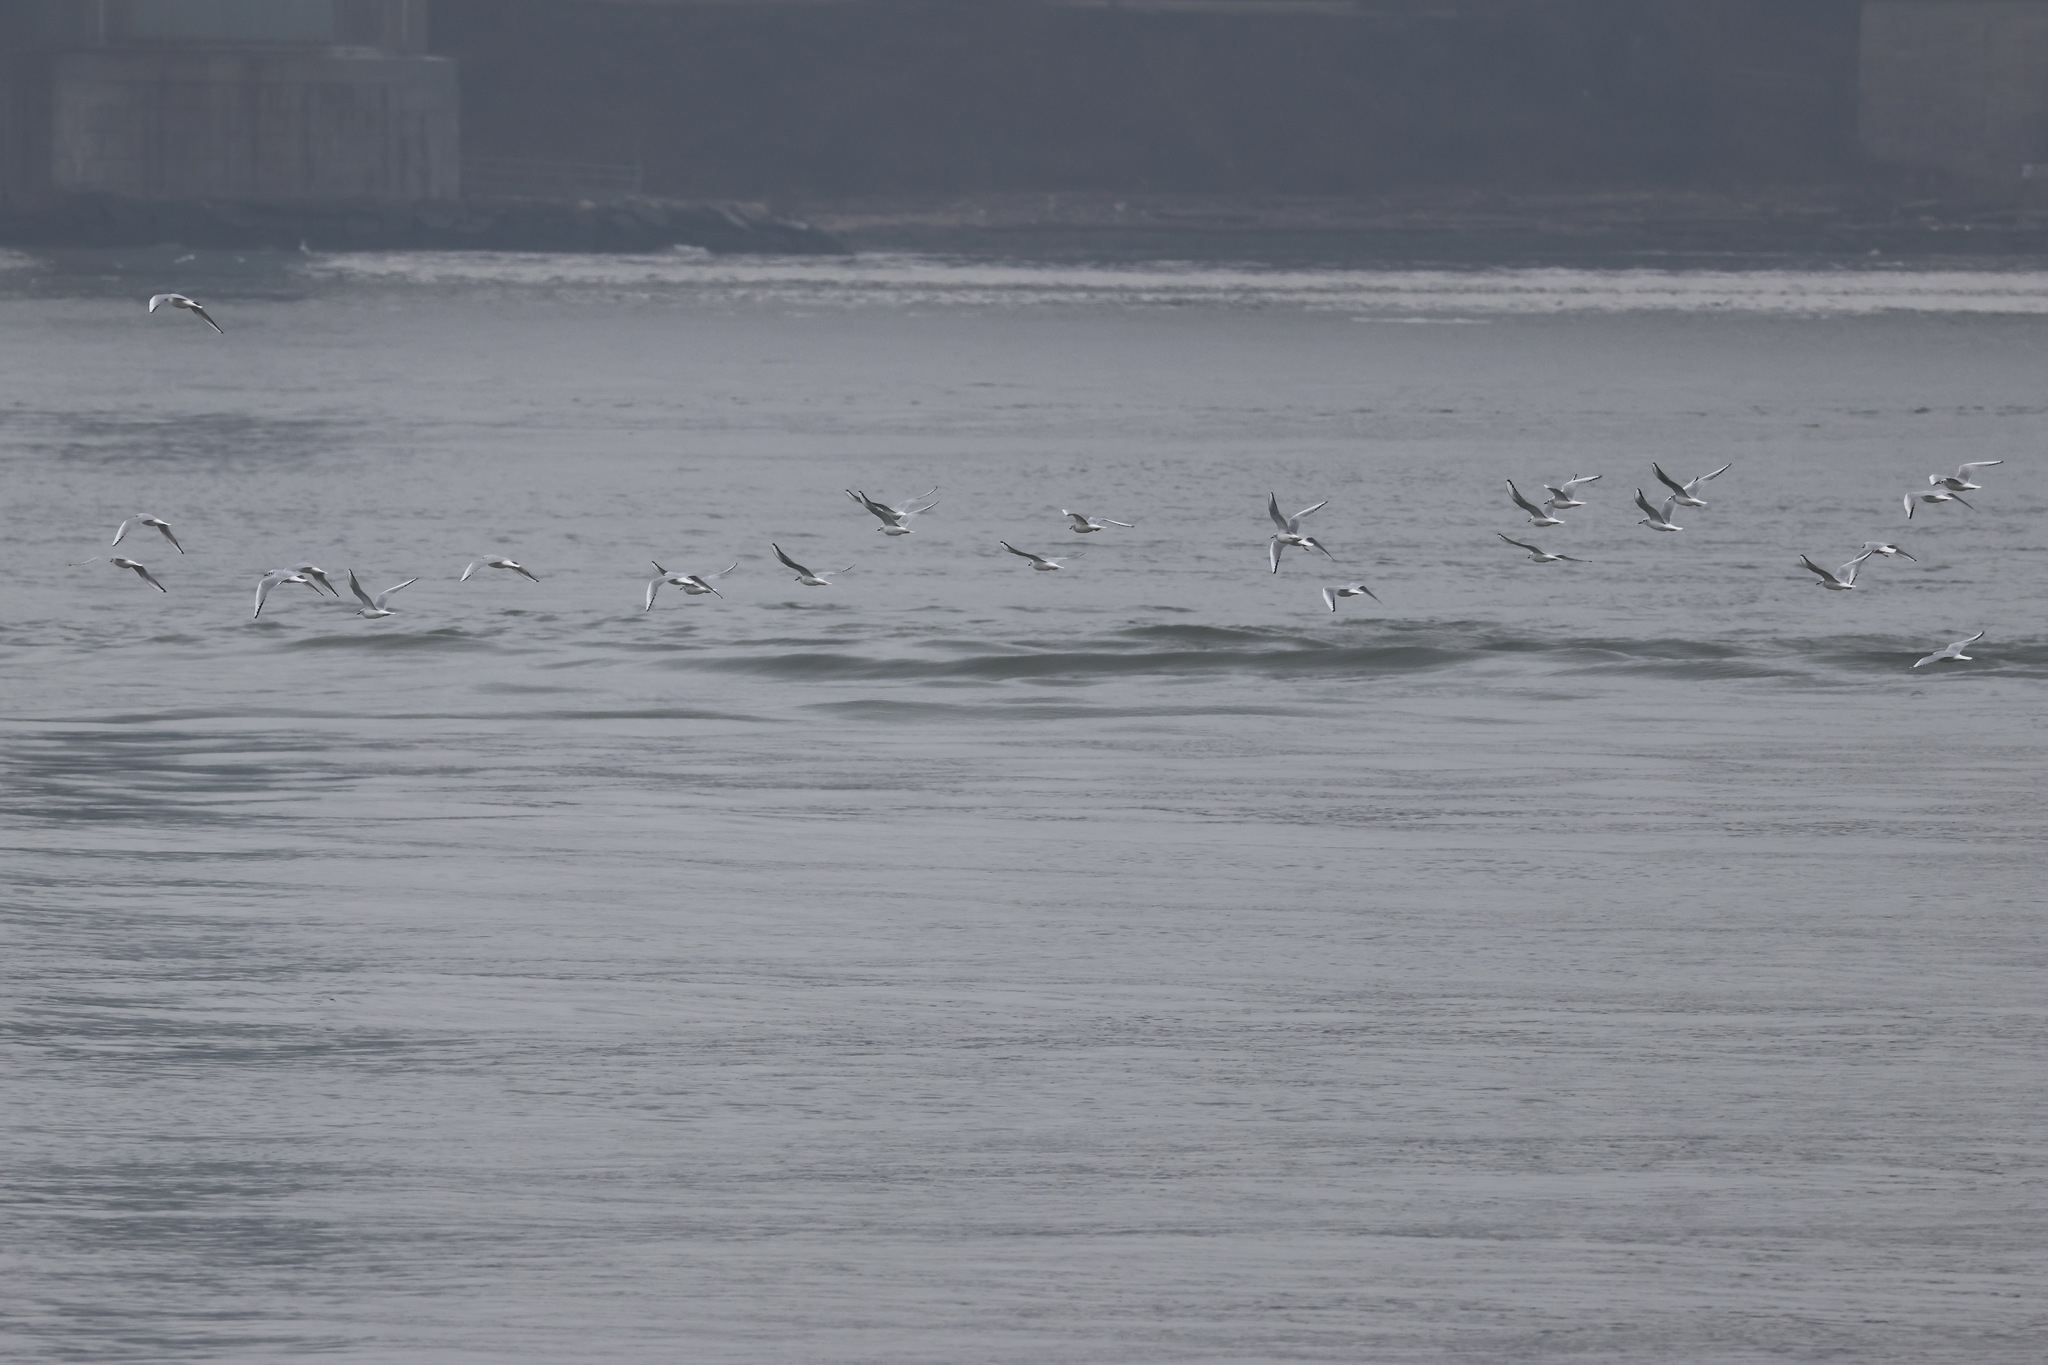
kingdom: Animalia
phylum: Chordata
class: Aves
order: Charadriiformes
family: Laridae
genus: Chroicocephalus
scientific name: Chroicocephalus philadelphia
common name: Bonaparte's gull
